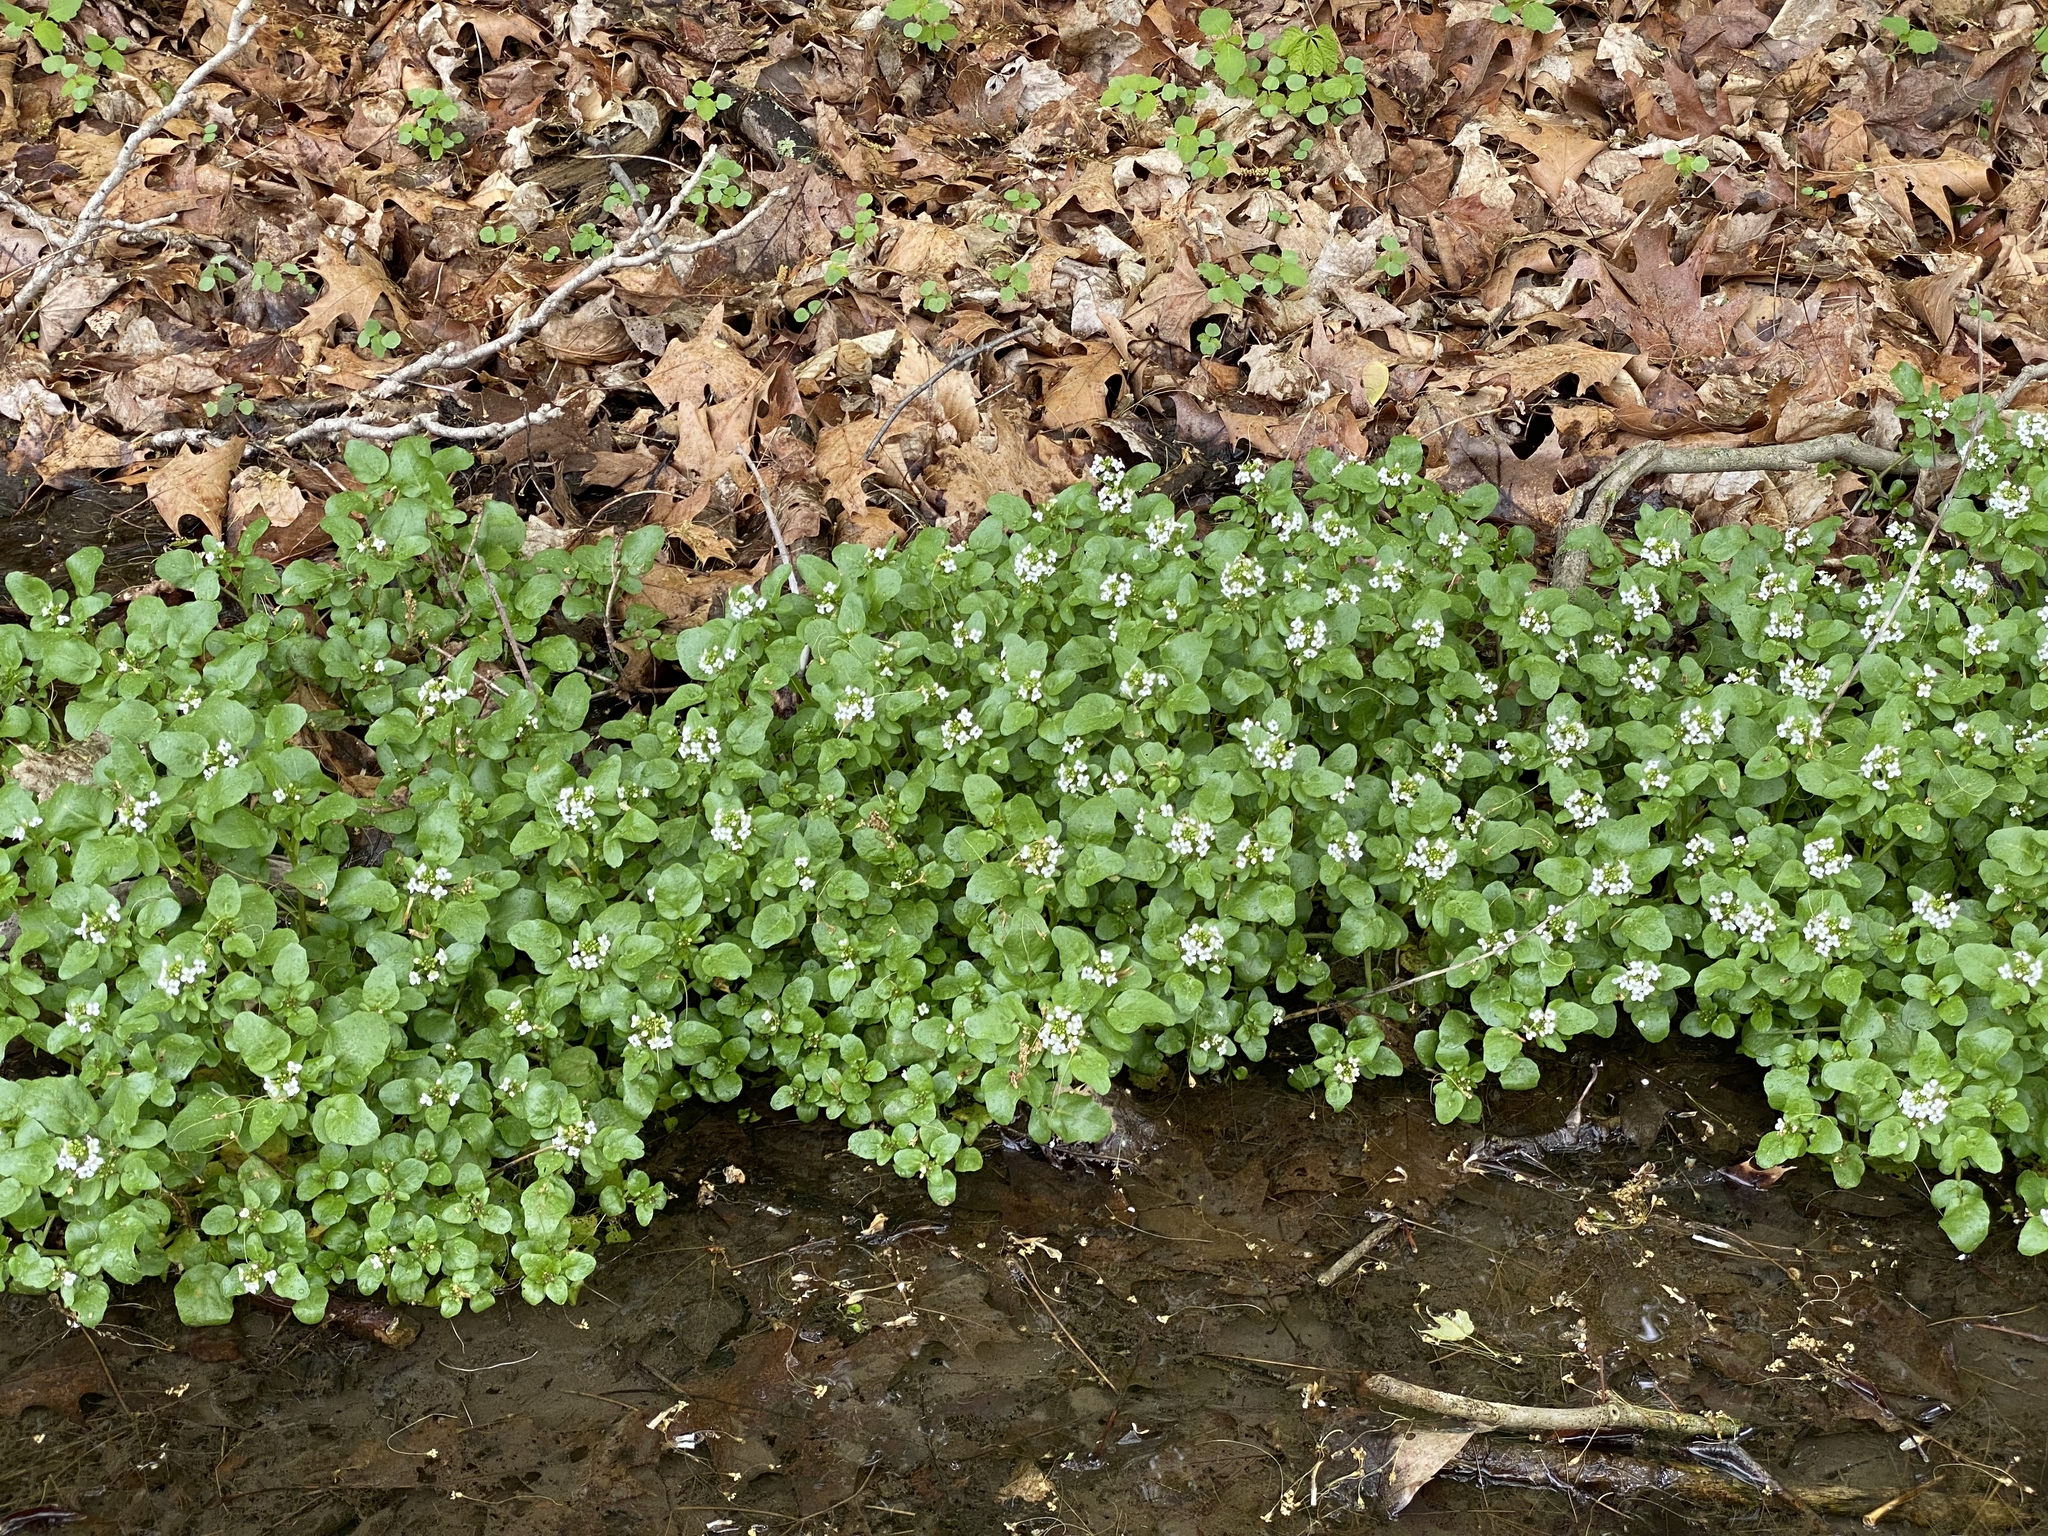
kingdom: Plantae
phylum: Tracheophyta
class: Magnoliopsida
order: Brassicales
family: Brassicaceae
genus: Nasturtium
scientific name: Nasturtium officinale
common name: Watercress
